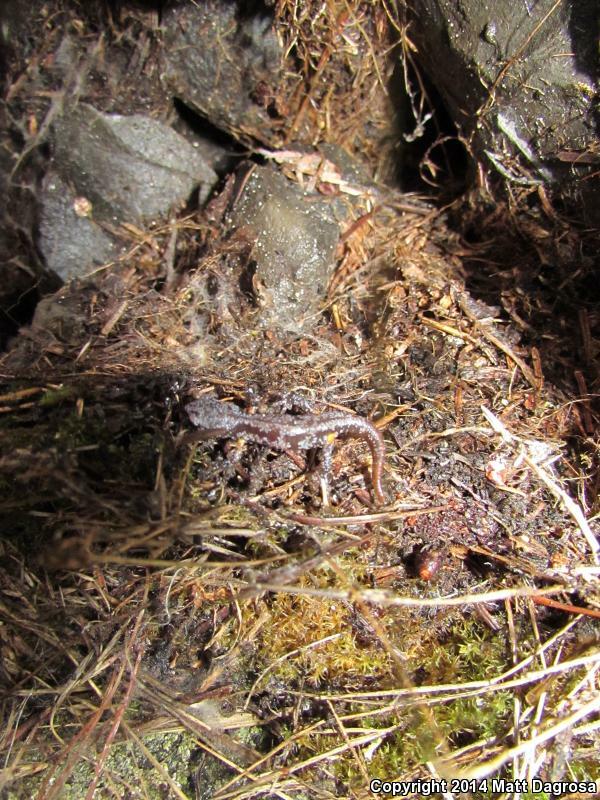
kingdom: Animalia
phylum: Chordata
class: Amphibia
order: Caudata
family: Plethodontidae
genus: Ensatina
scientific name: Ensatina eschscholtzii
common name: Ensatina
